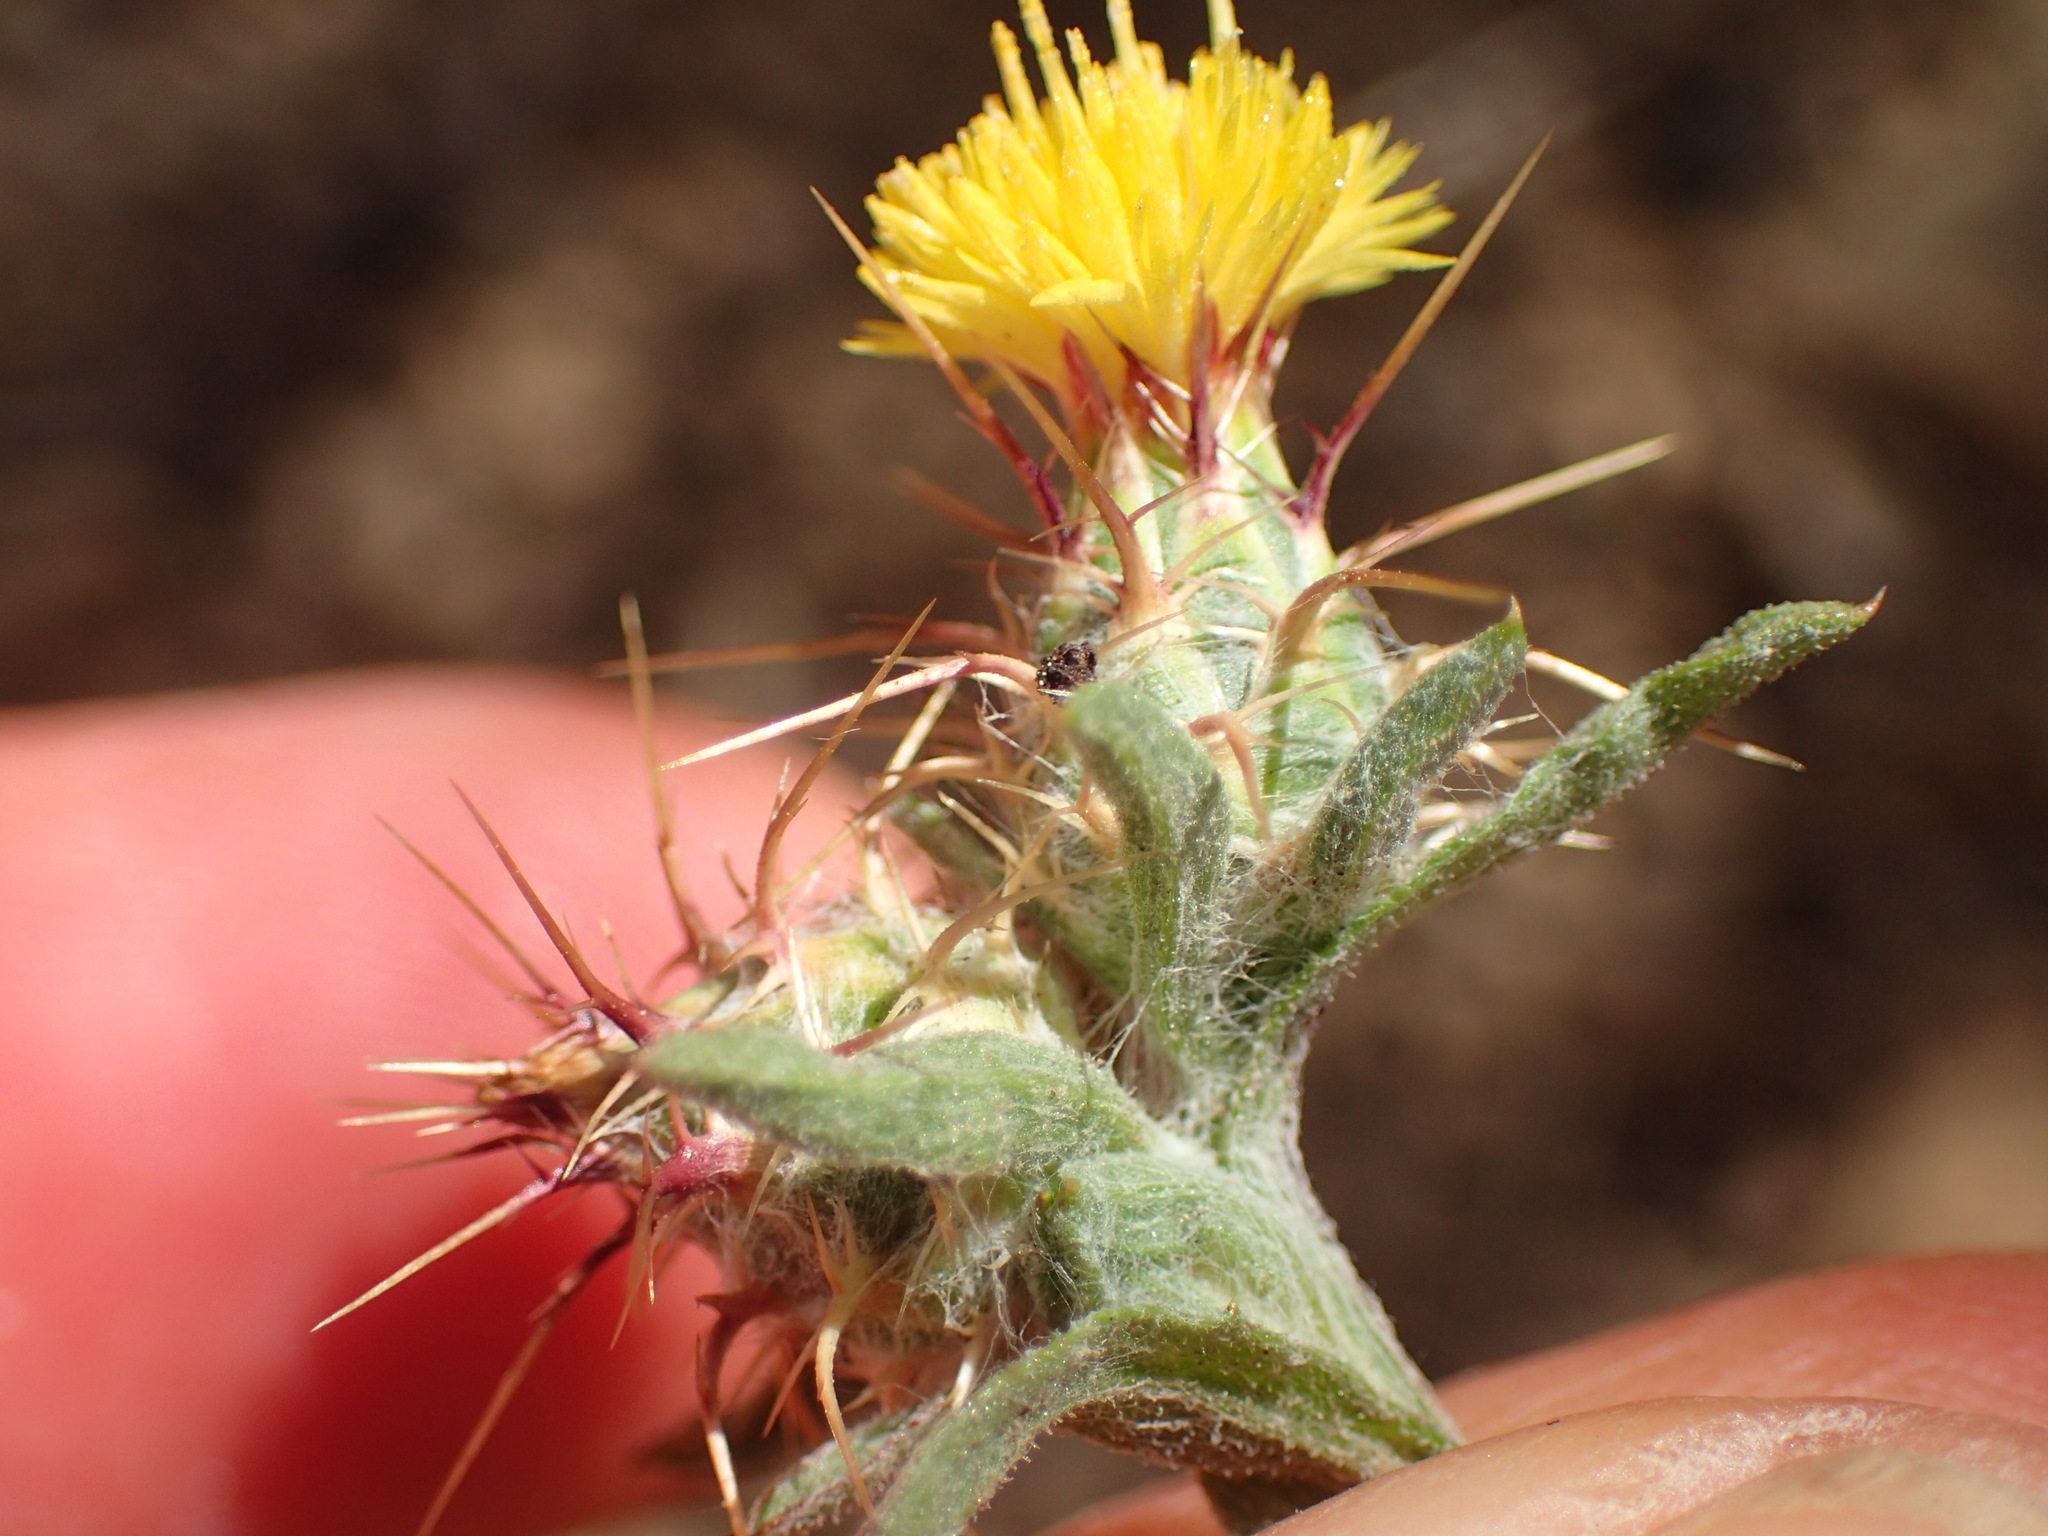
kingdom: Plantae
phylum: Tracheophyta
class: Magnoliopsida
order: Asterales
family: Asteraceae
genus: Centaurea
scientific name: Centaurea melitensis
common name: Maltese star-thistle
